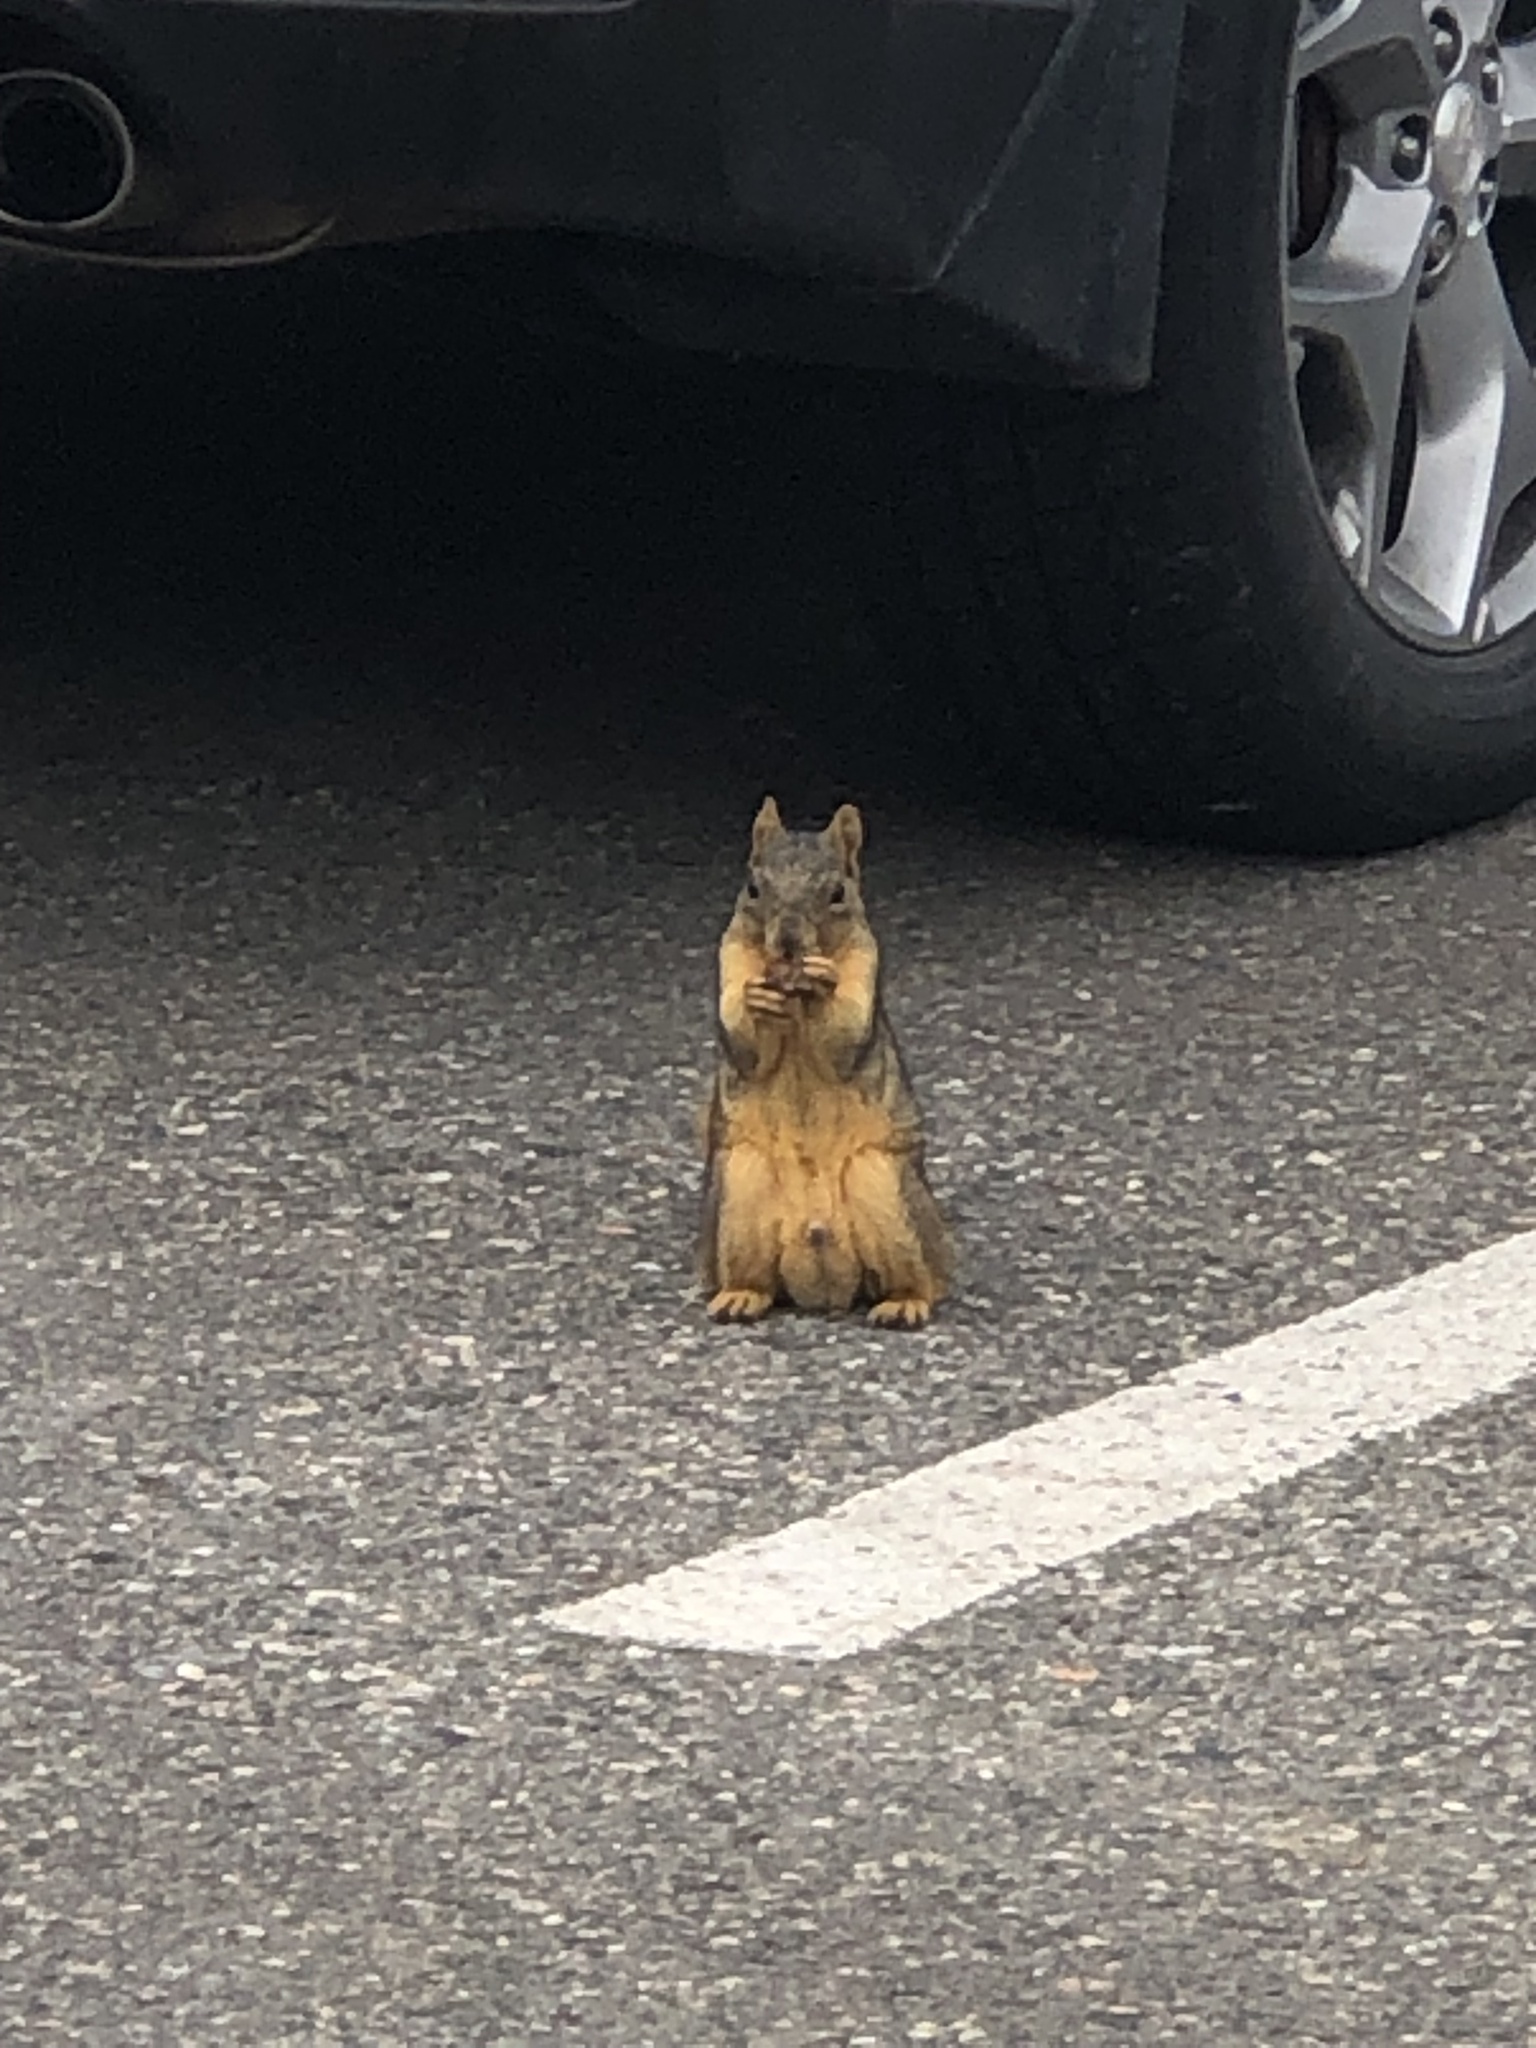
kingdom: Animalia
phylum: Chordata
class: Mammalia
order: Rodentia
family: Sciuridae
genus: Sciurus
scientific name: Sciurus niger
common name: Fox squirrel
